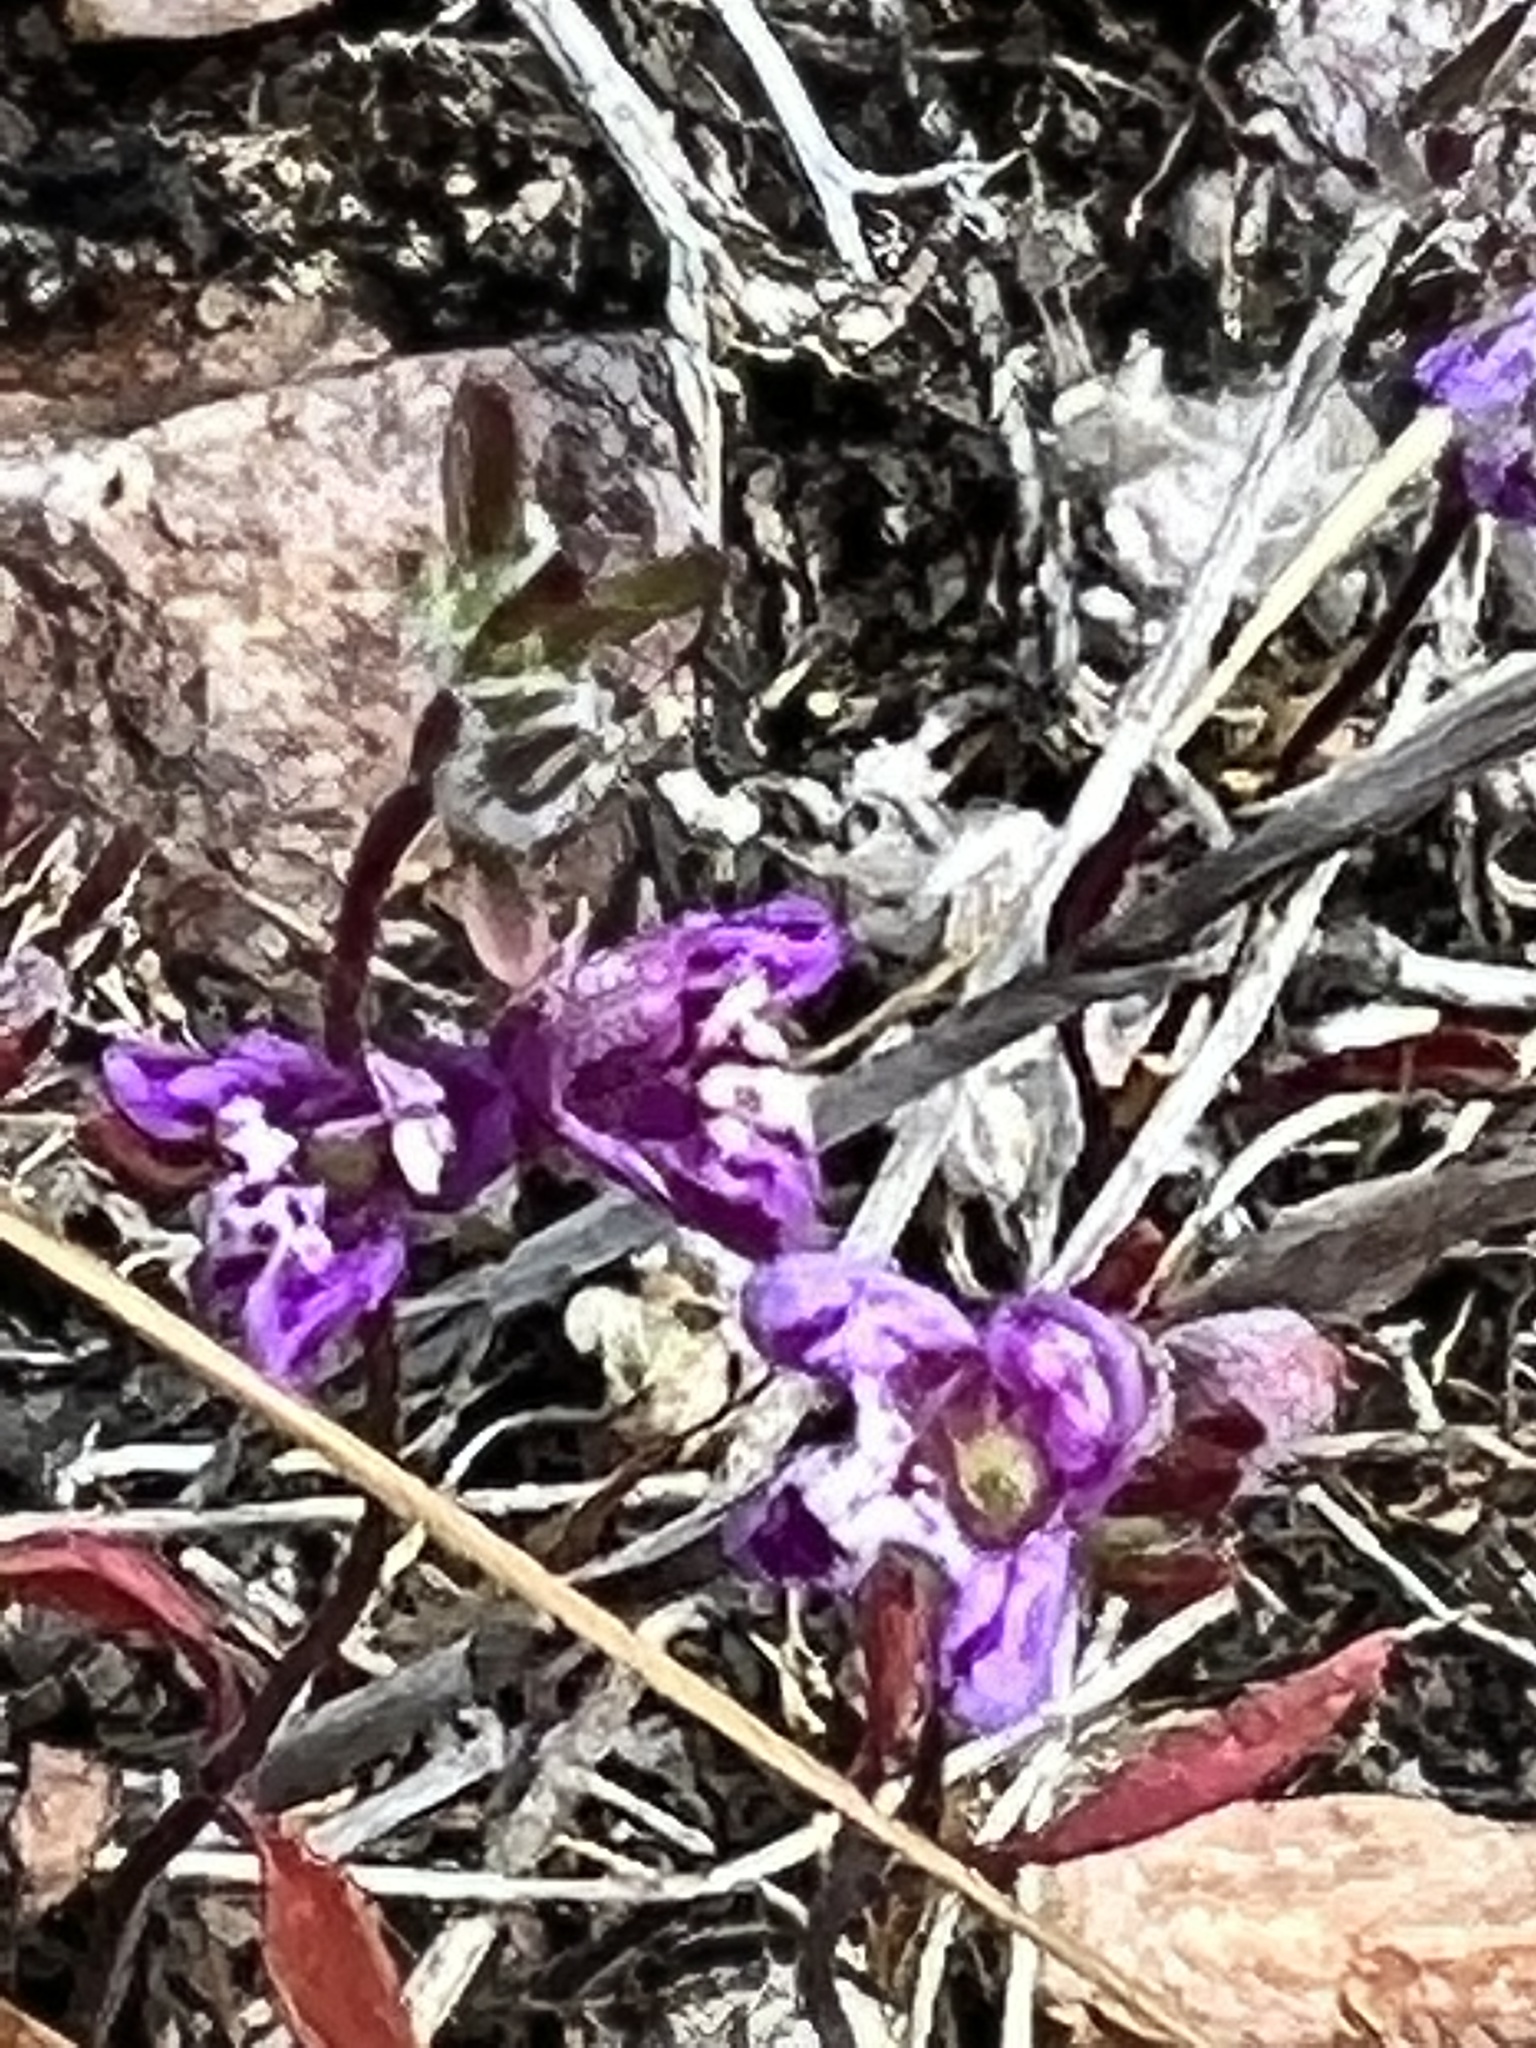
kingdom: Plantae
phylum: Tracheophyta
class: Magnoliopsida
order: Lamiales
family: Lamiaceae
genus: Pogogyne
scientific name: Pogogyne abramsii
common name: San diego mesa-mint
